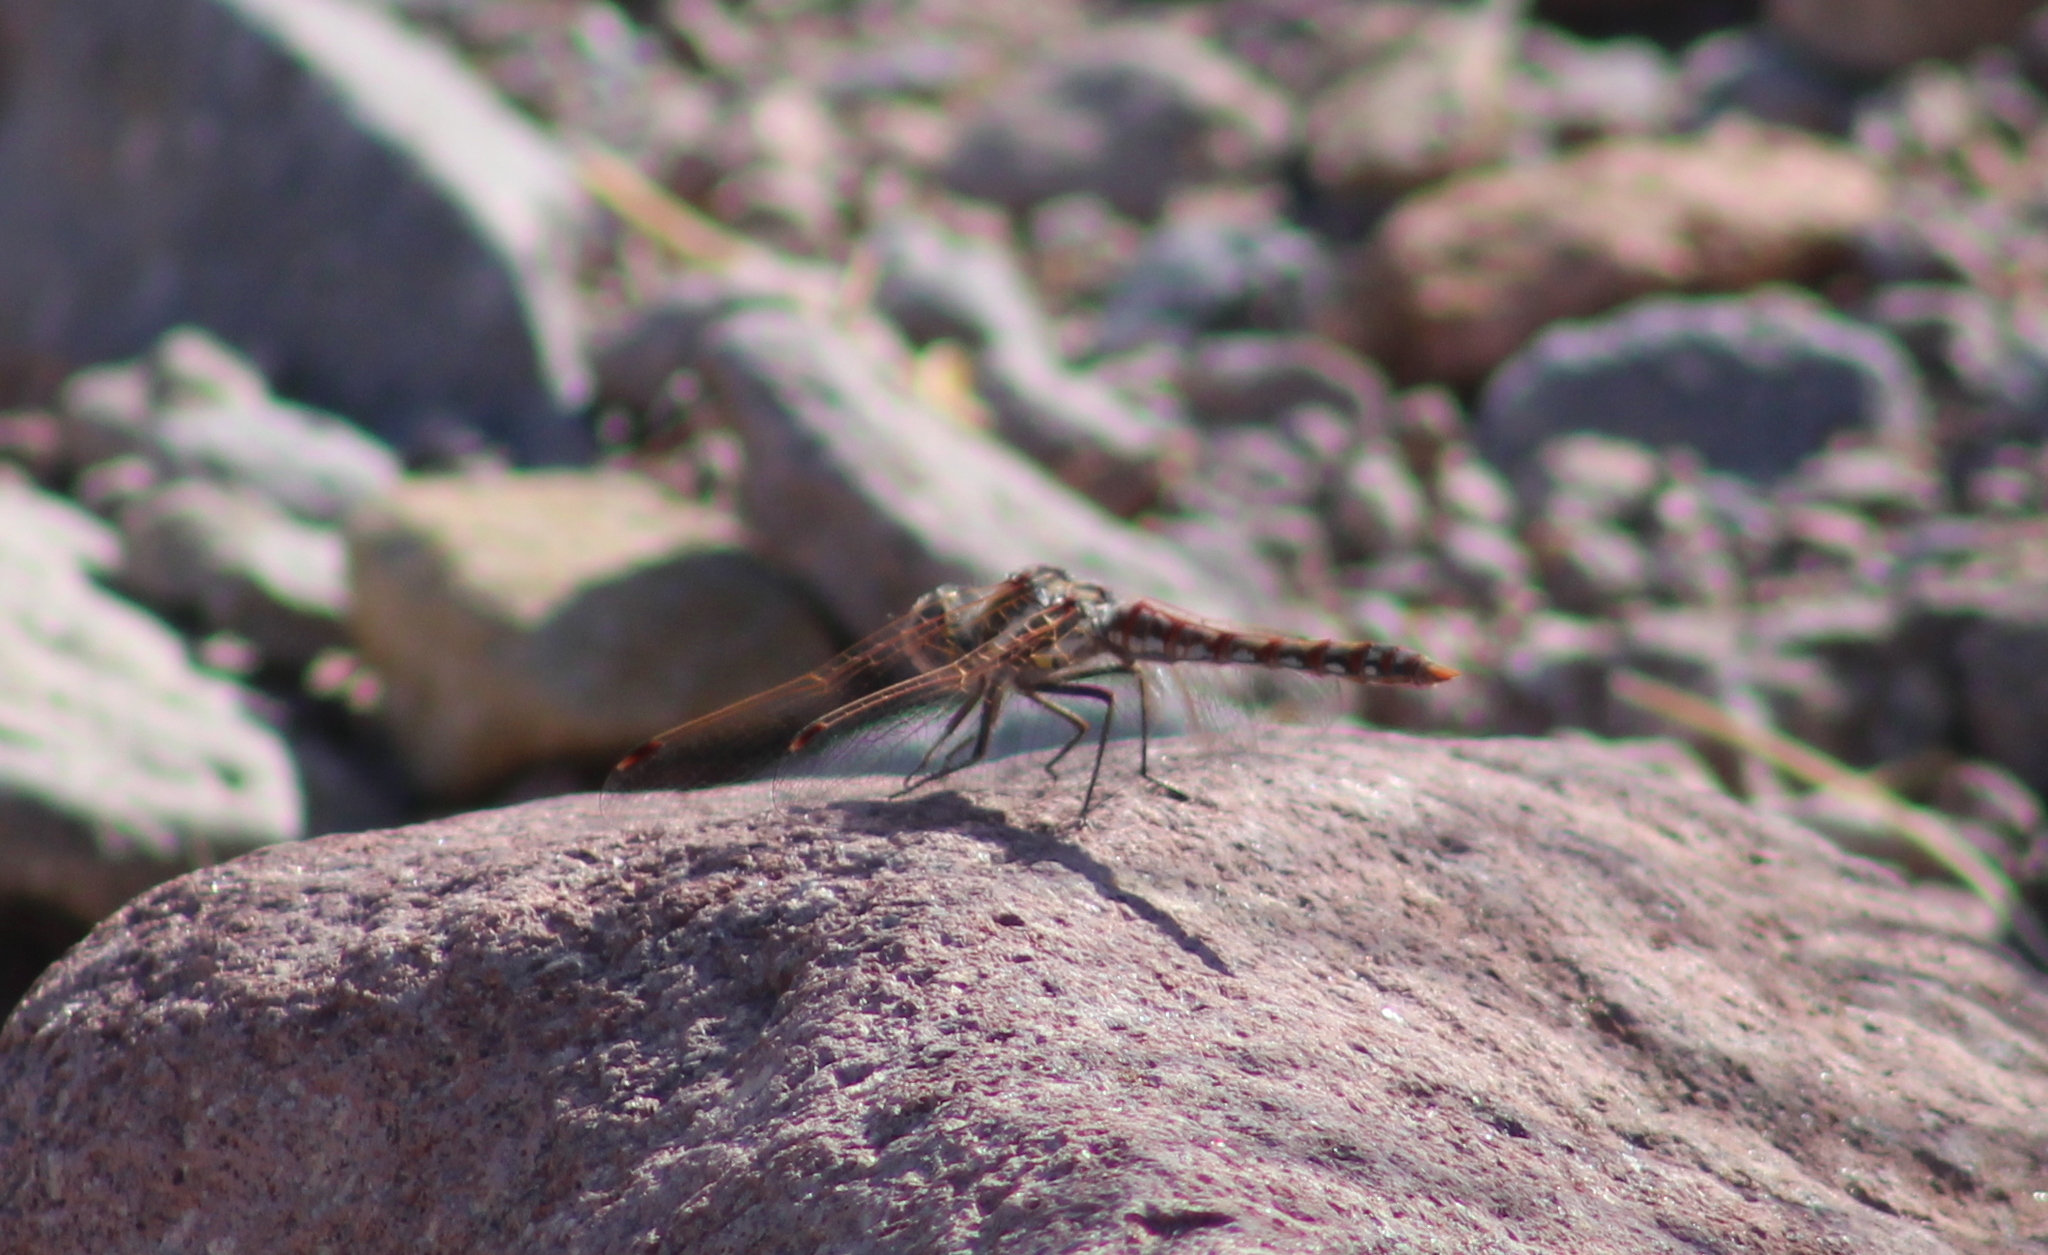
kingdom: Animalia
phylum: Arthropoda
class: Insecta
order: Odonata
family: Libellulidae
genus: Sympetrum
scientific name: Sympetrum corruptum
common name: Variegated meadowhawk
